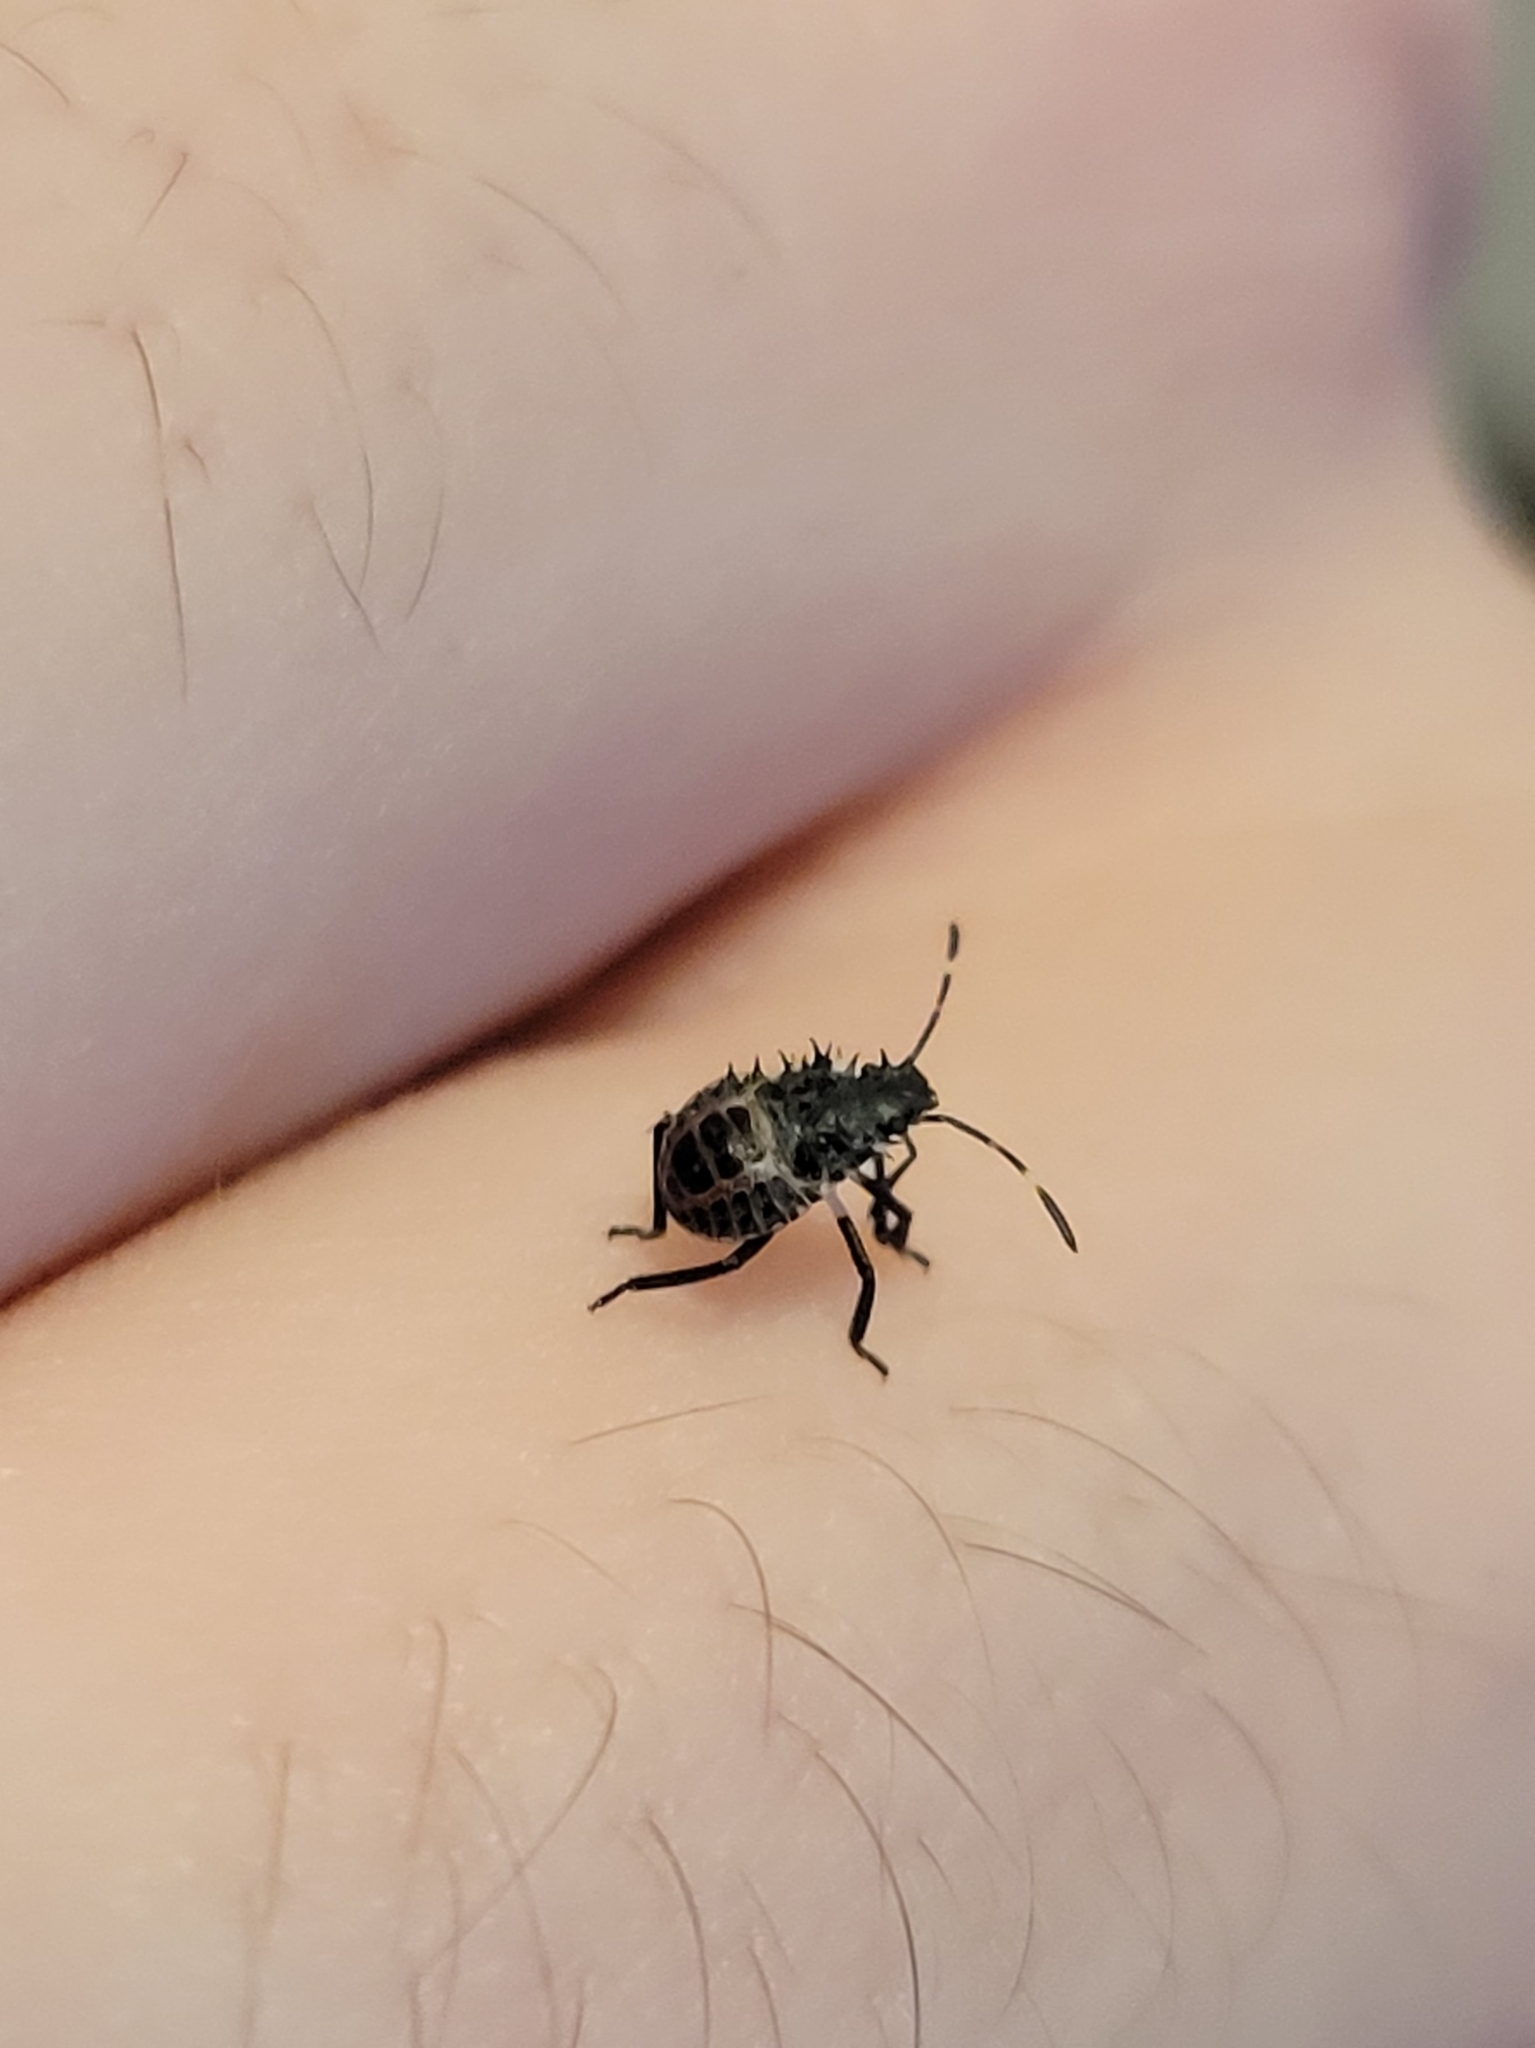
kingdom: Animalia
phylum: Arthropoda
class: Insecta
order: Hemiptera
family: Pentatomidae
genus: Halyomorpha
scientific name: Halyomorpha halys
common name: Brown marmorated stink bug
